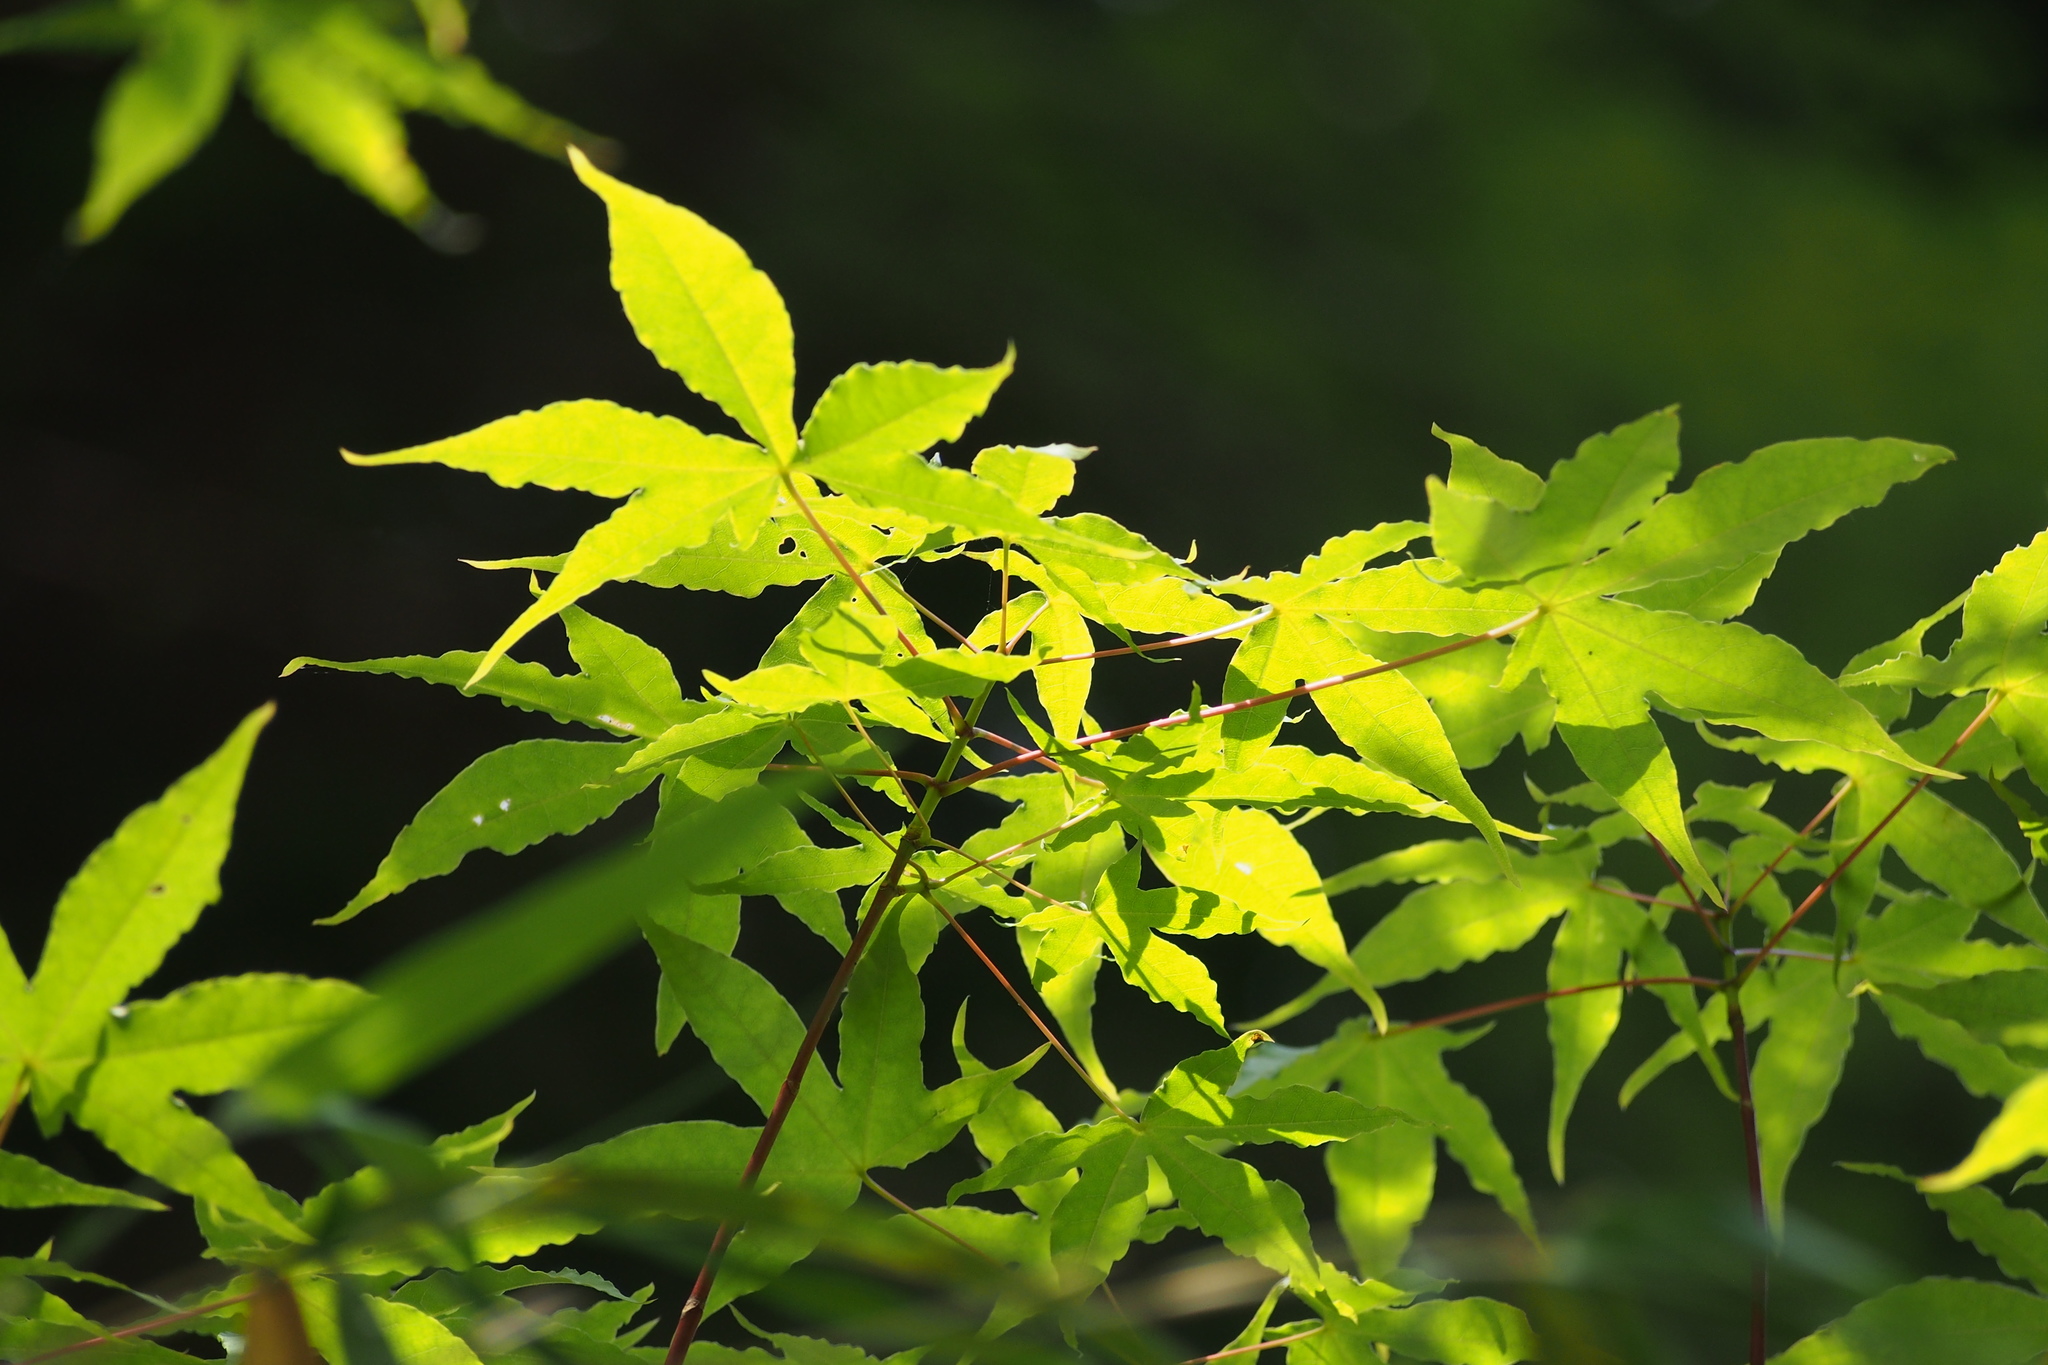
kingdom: Plantae
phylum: Tracheophyta
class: Magnoliopsida
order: Sapindales
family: Sapindaceae
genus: Acer
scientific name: Acer pictum
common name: The painted maple
